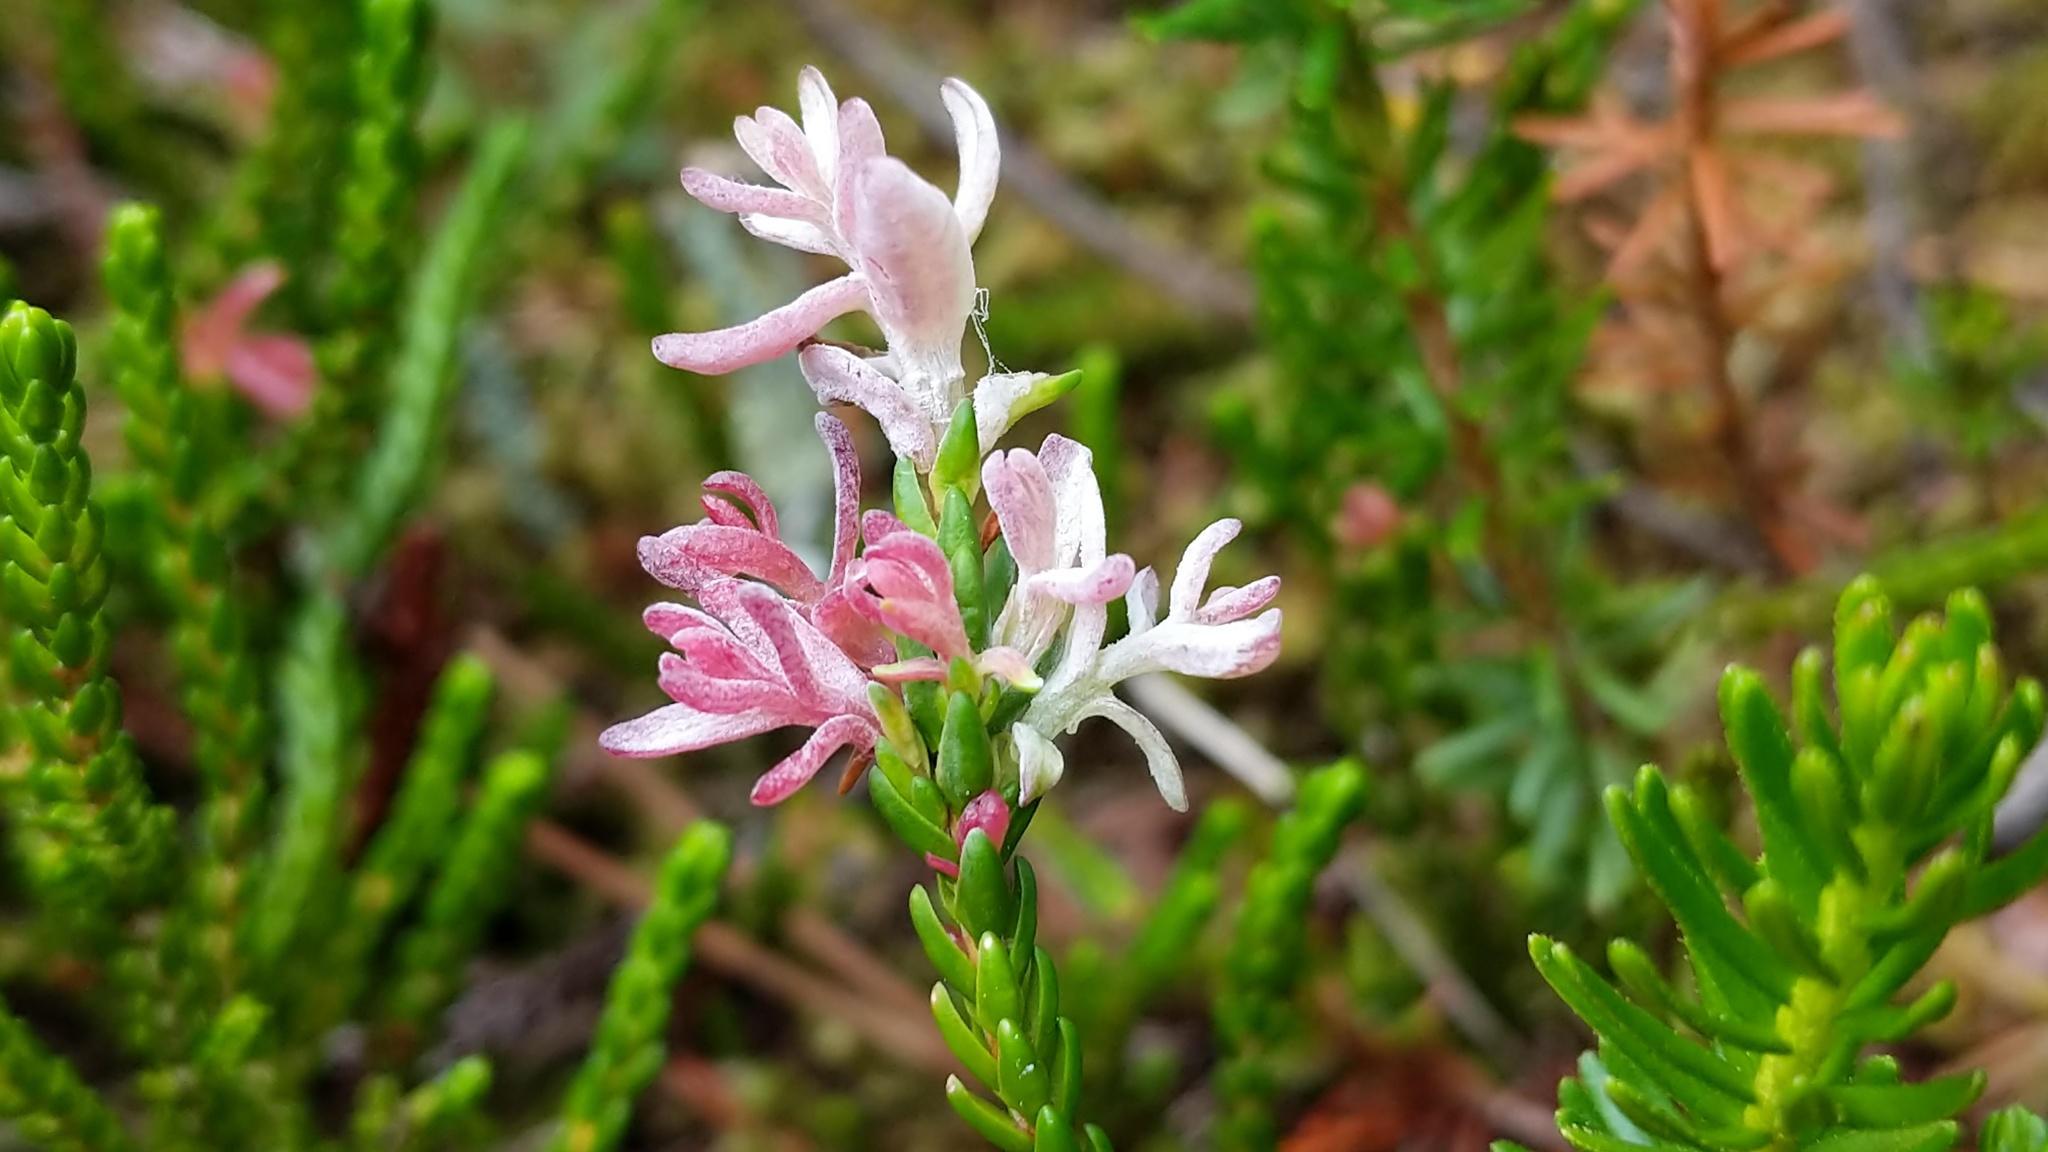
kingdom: Fungi
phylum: Basidiomycota
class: Exobasidiomycetes
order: Exobasidiales
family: Exobasidiaceae
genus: Exobasidium
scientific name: Exobasidium cassiopes
